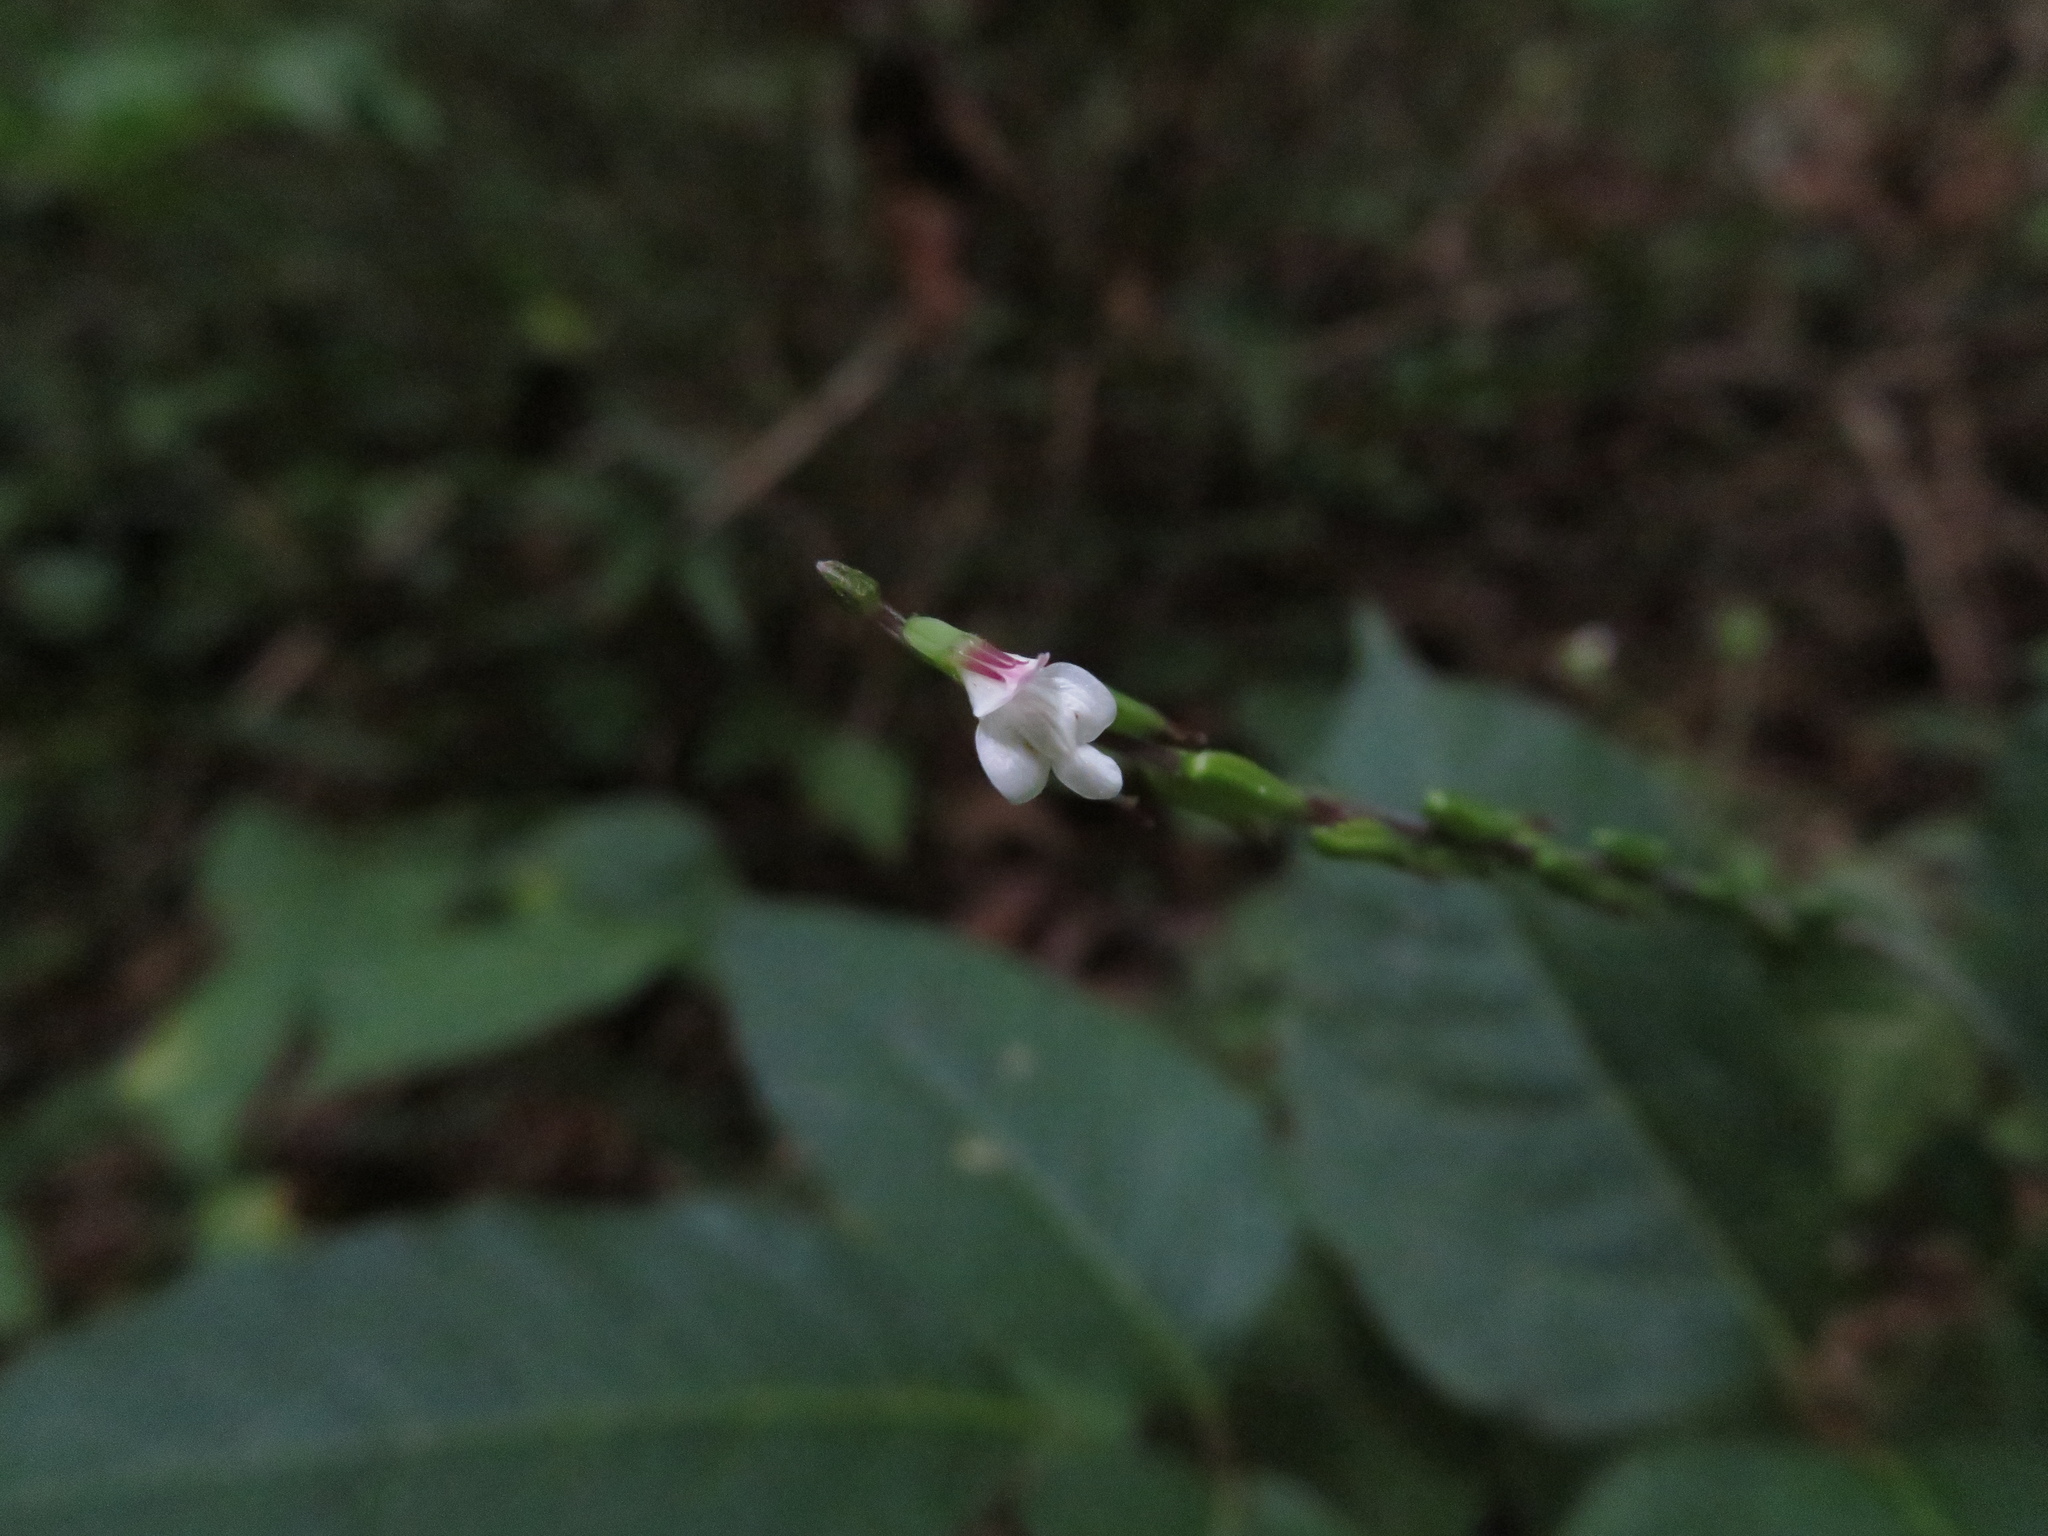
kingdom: Plantae
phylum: Tracheophyta
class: Magnoliopsida
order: Lamiales
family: Phrymaceae
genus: Phryma
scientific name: Phryma leptostachya
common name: American lopseed
